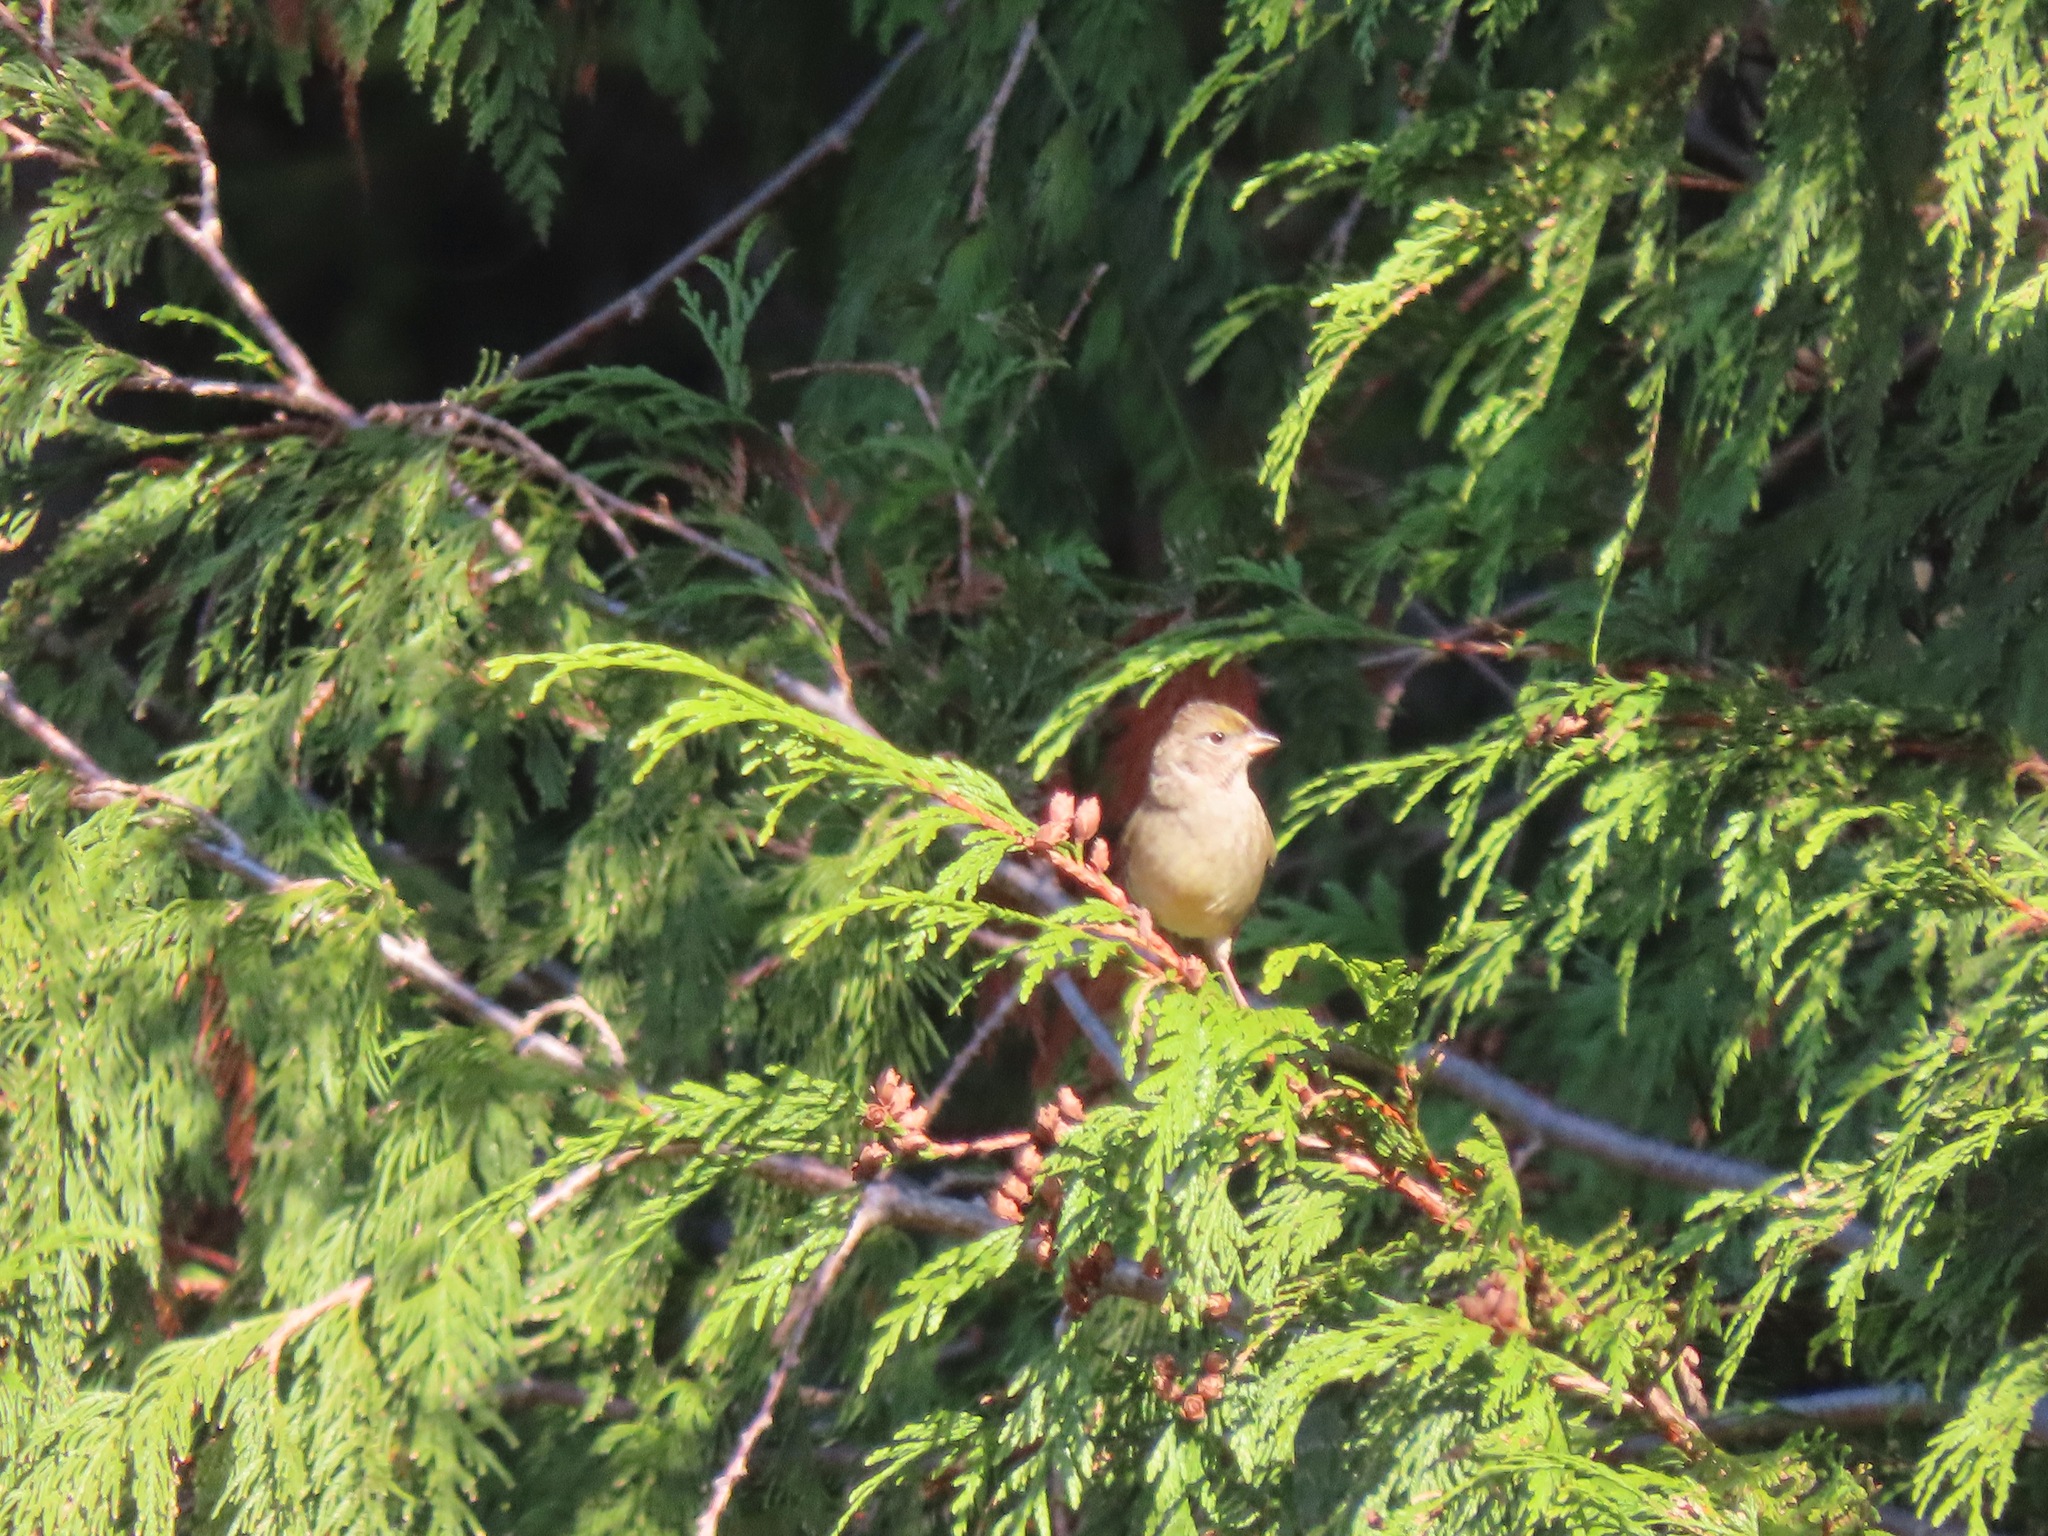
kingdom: Animalia
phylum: Chordata
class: Aves
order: Passeriformes
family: Passerellidae
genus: Zonotrichia
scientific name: Zonotrichia atricapilla
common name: Golden-crowned sparrow
